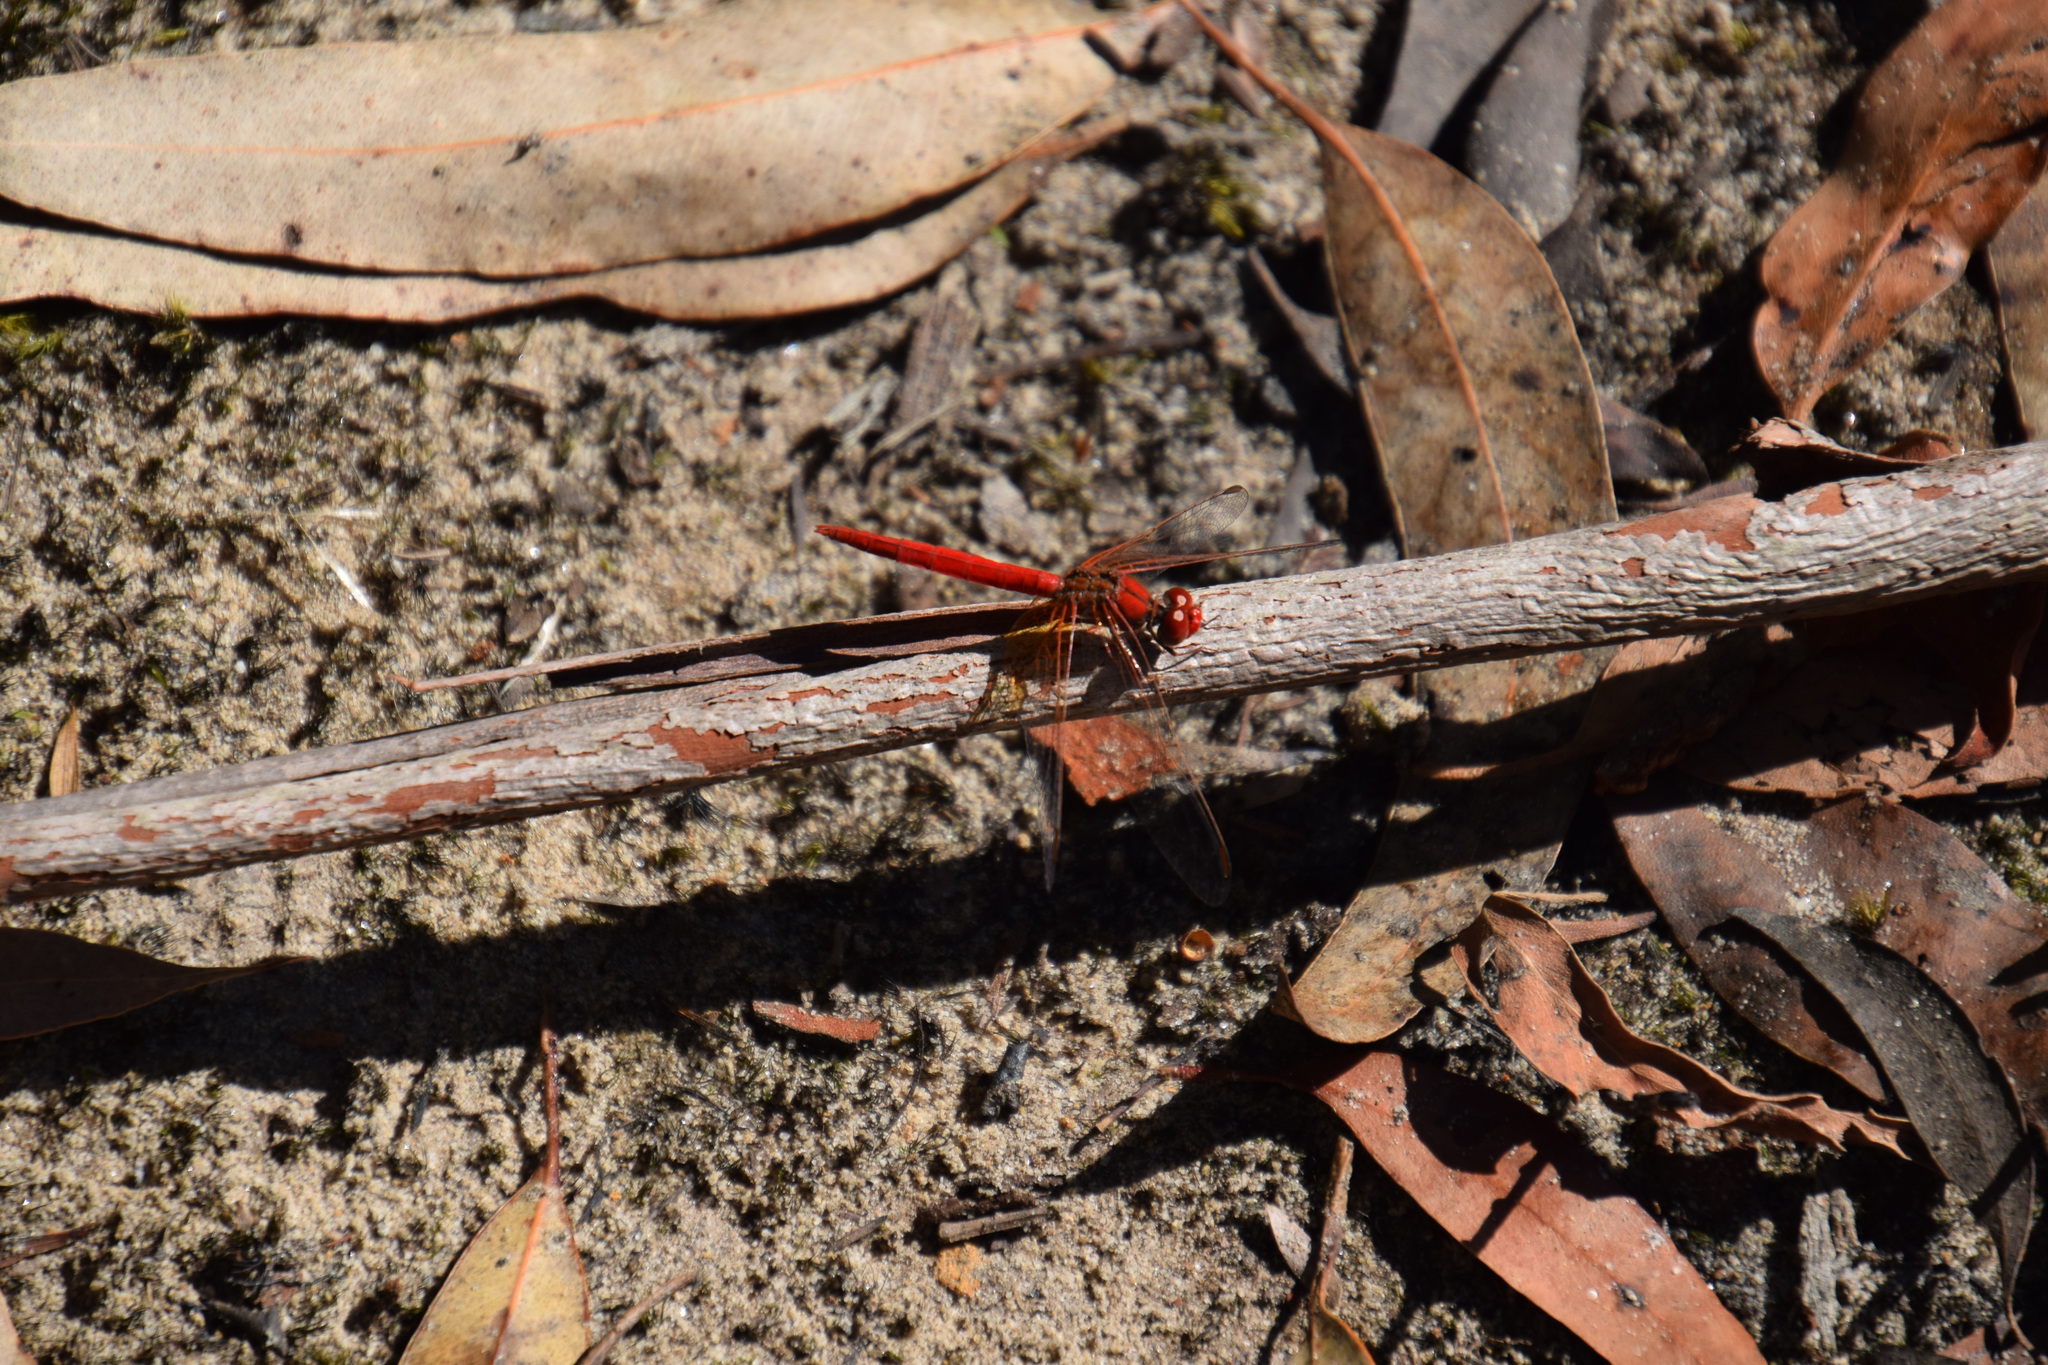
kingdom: Animalia
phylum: Arthropoda
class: Insecta
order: Odonata
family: Libellulidae
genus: Diplacodes
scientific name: Diplacodes haematodes
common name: Scarlet percher
